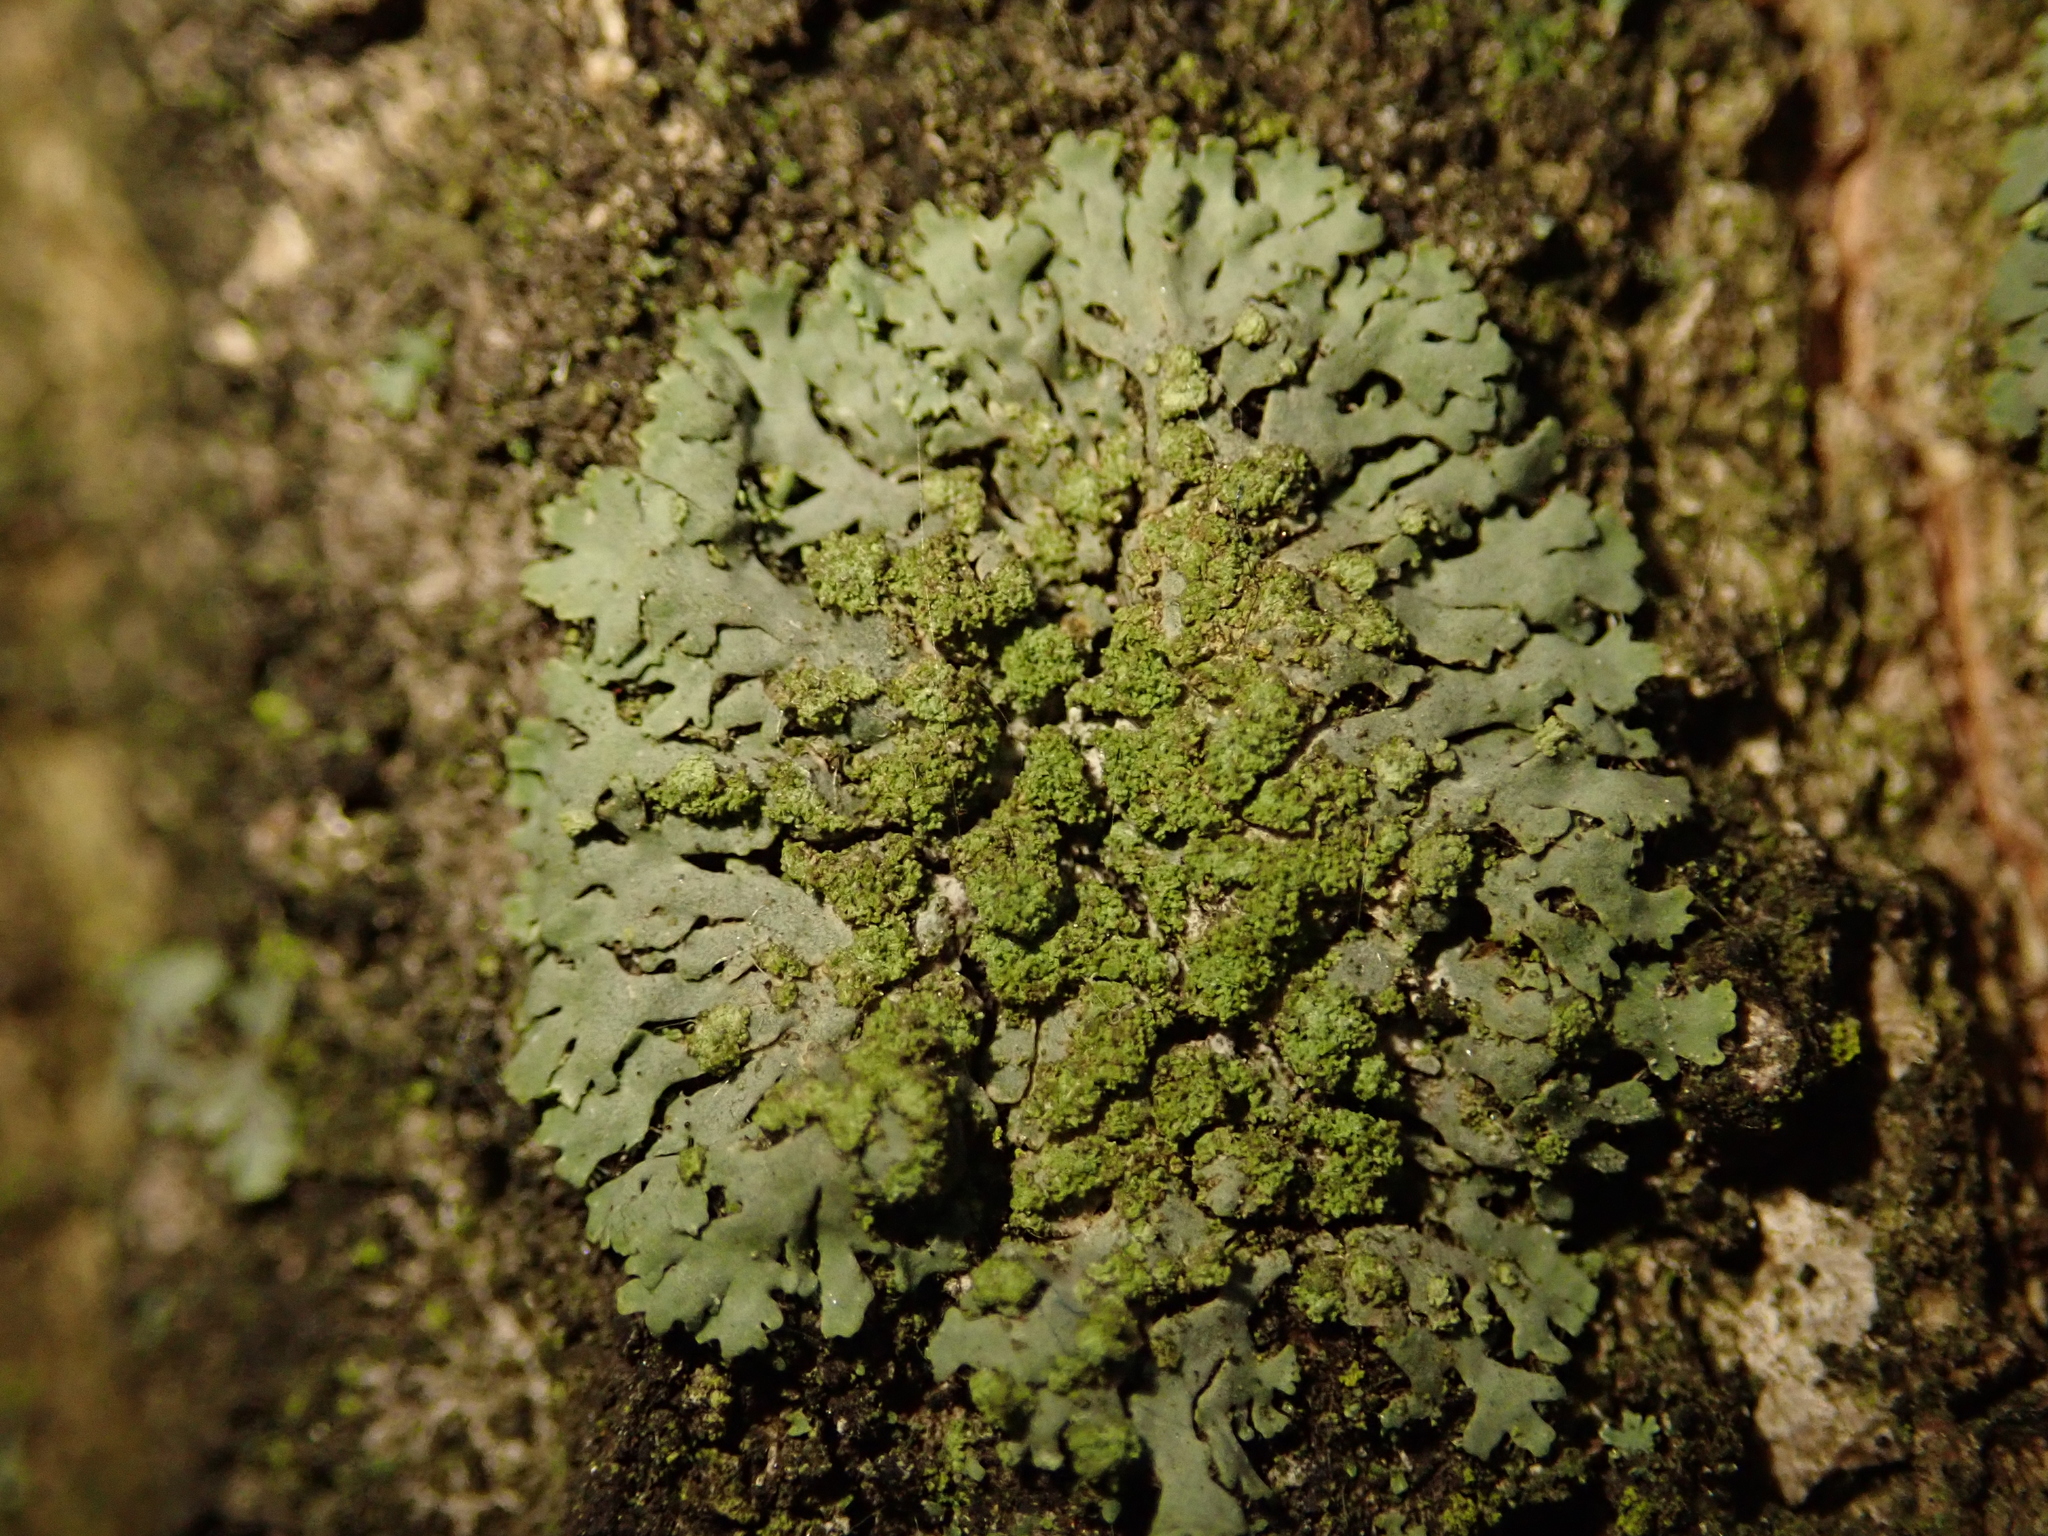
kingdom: Fungi
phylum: Ascomycota
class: Lecanoromycetes
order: Caliciales
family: Physciaceae
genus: Phaeophyscia
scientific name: Phaeophyscia orbicularis
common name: Mealy shadow lichen
